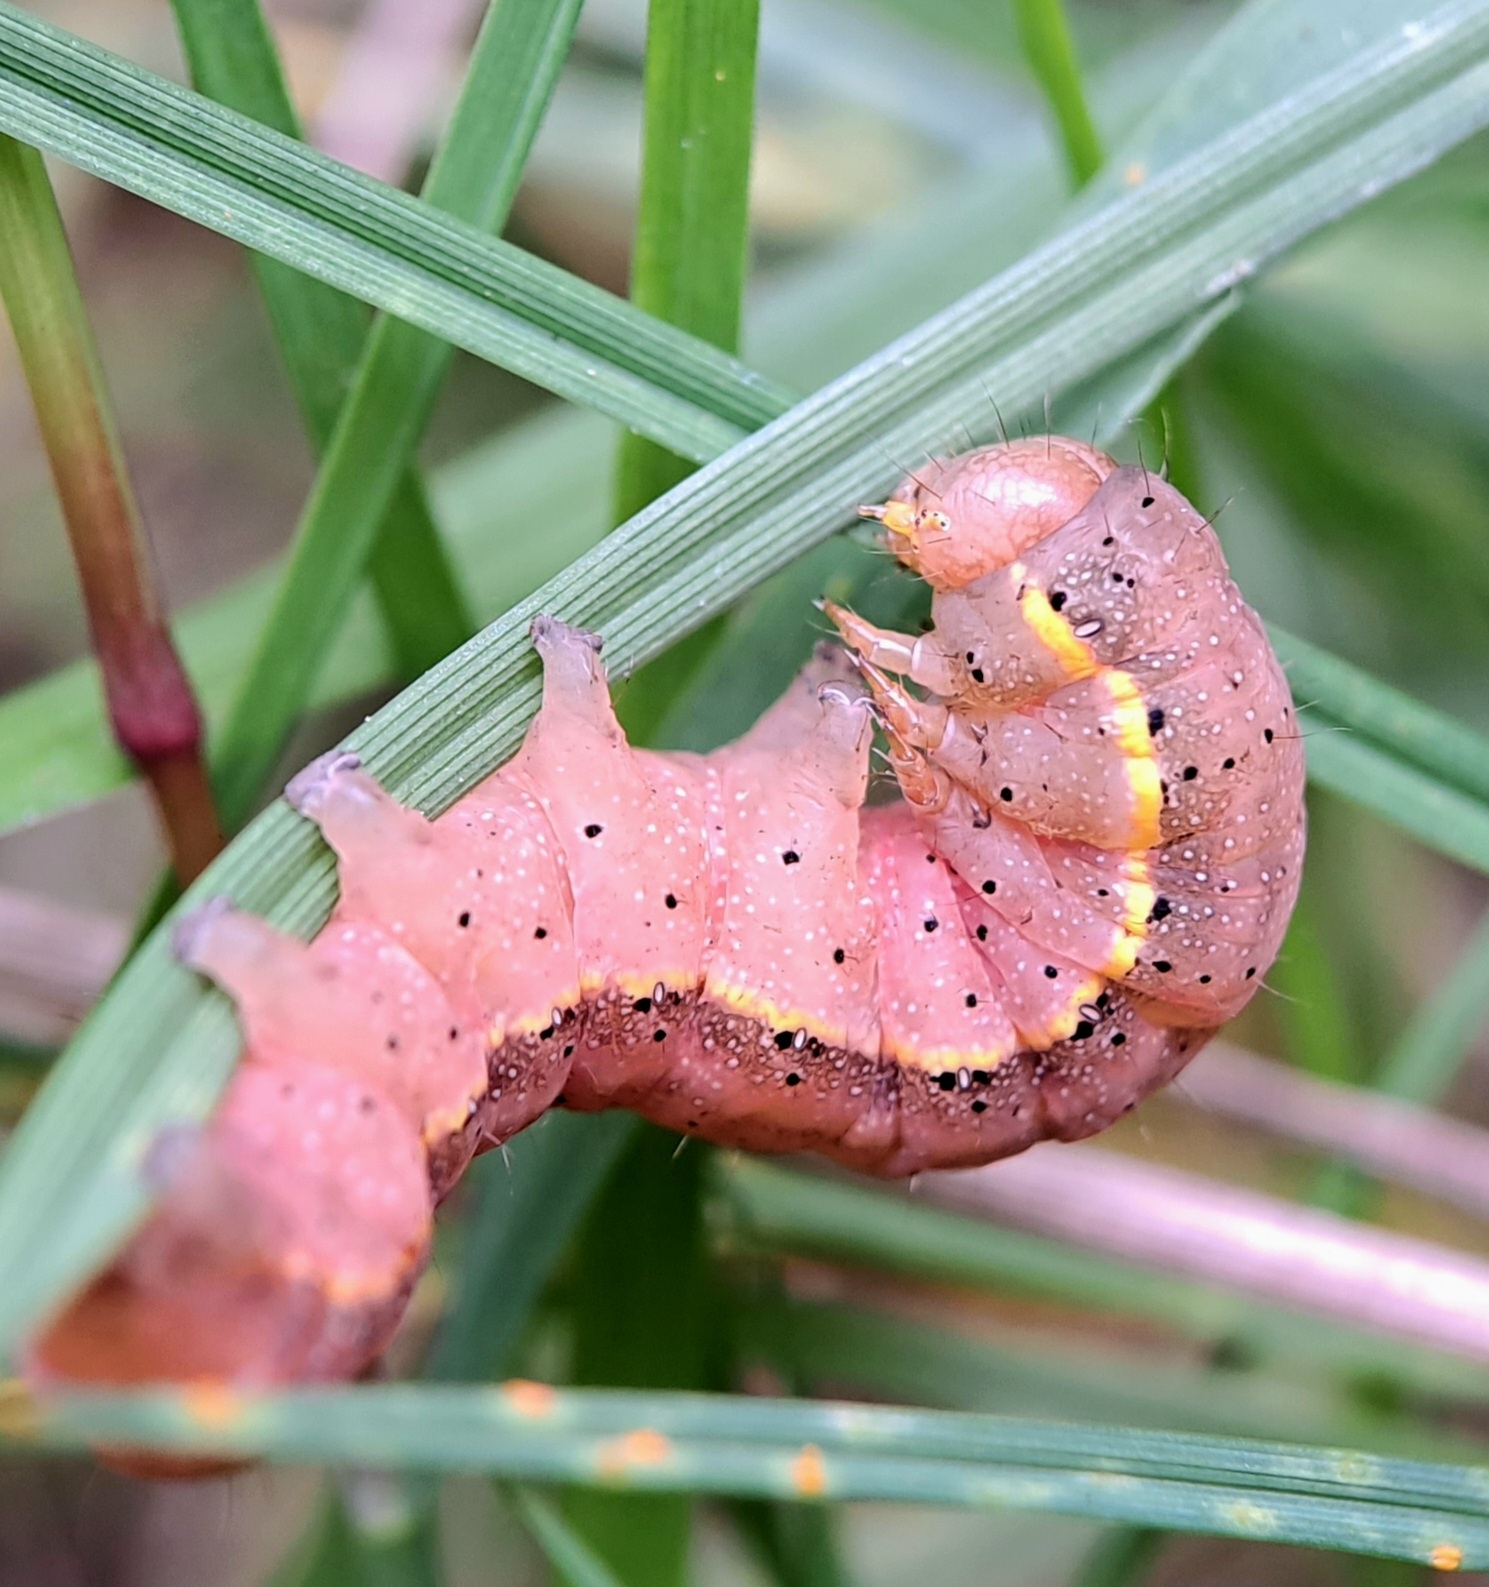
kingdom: Animalia
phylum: Arthropoda
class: Insecta
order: Lepidoptera
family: Noctuidae
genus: Lacanobia
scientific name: Lacanobia oleracea
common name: Bright-line brown-eye
